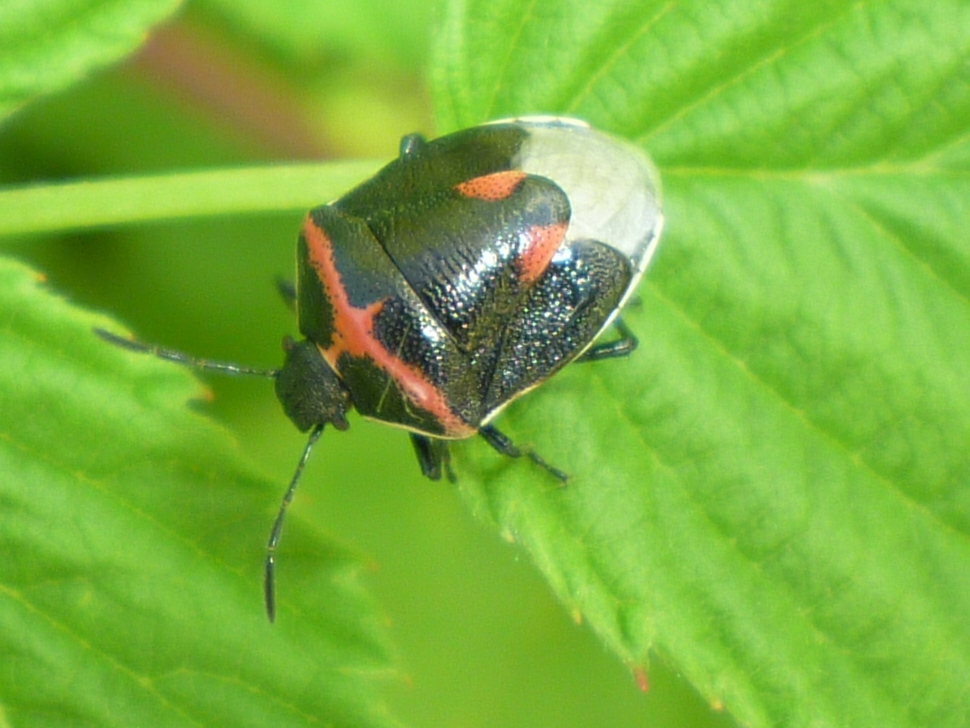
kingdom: Animalia
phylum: Arthropoda
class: Insecta
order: Hemiptera
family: Pentatomidae
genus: Cosmopepla
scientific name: Cosmopepla lintneriana
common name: Twice-stabbed stink bug
